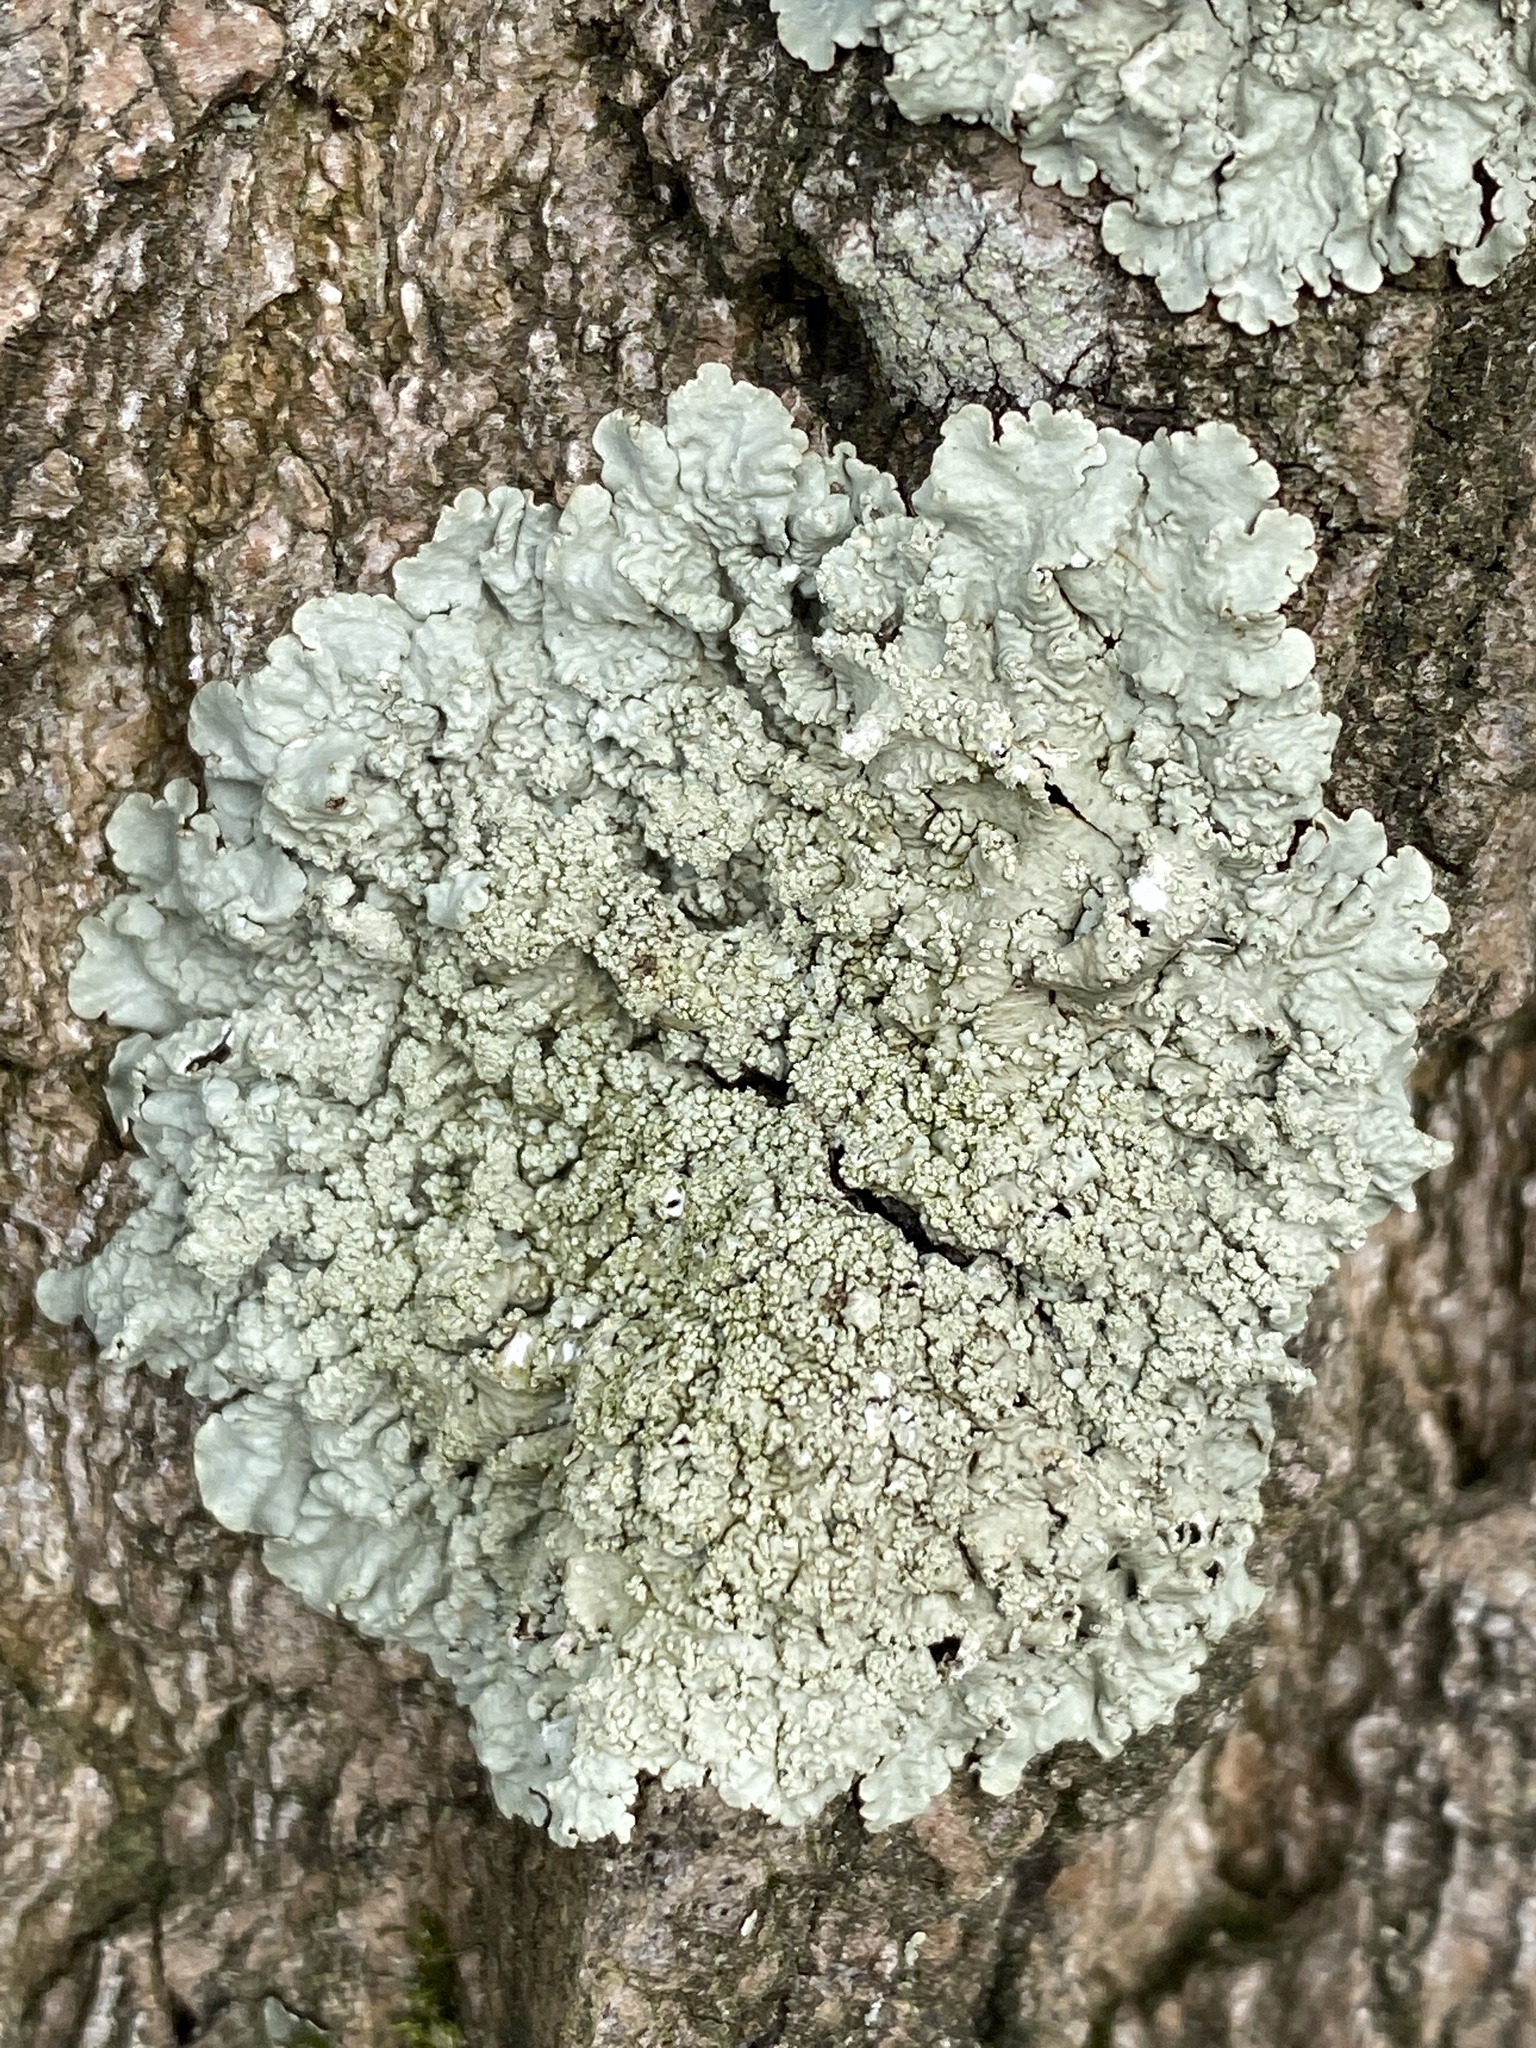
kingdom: Fungi
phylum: Ascomycota
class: Lecanoromycetes
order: Lecanorales
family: Parmeliaceae
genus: Flavoparmelia
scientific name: Flavoparmelia caperata
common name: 40-mile per hour lichen
